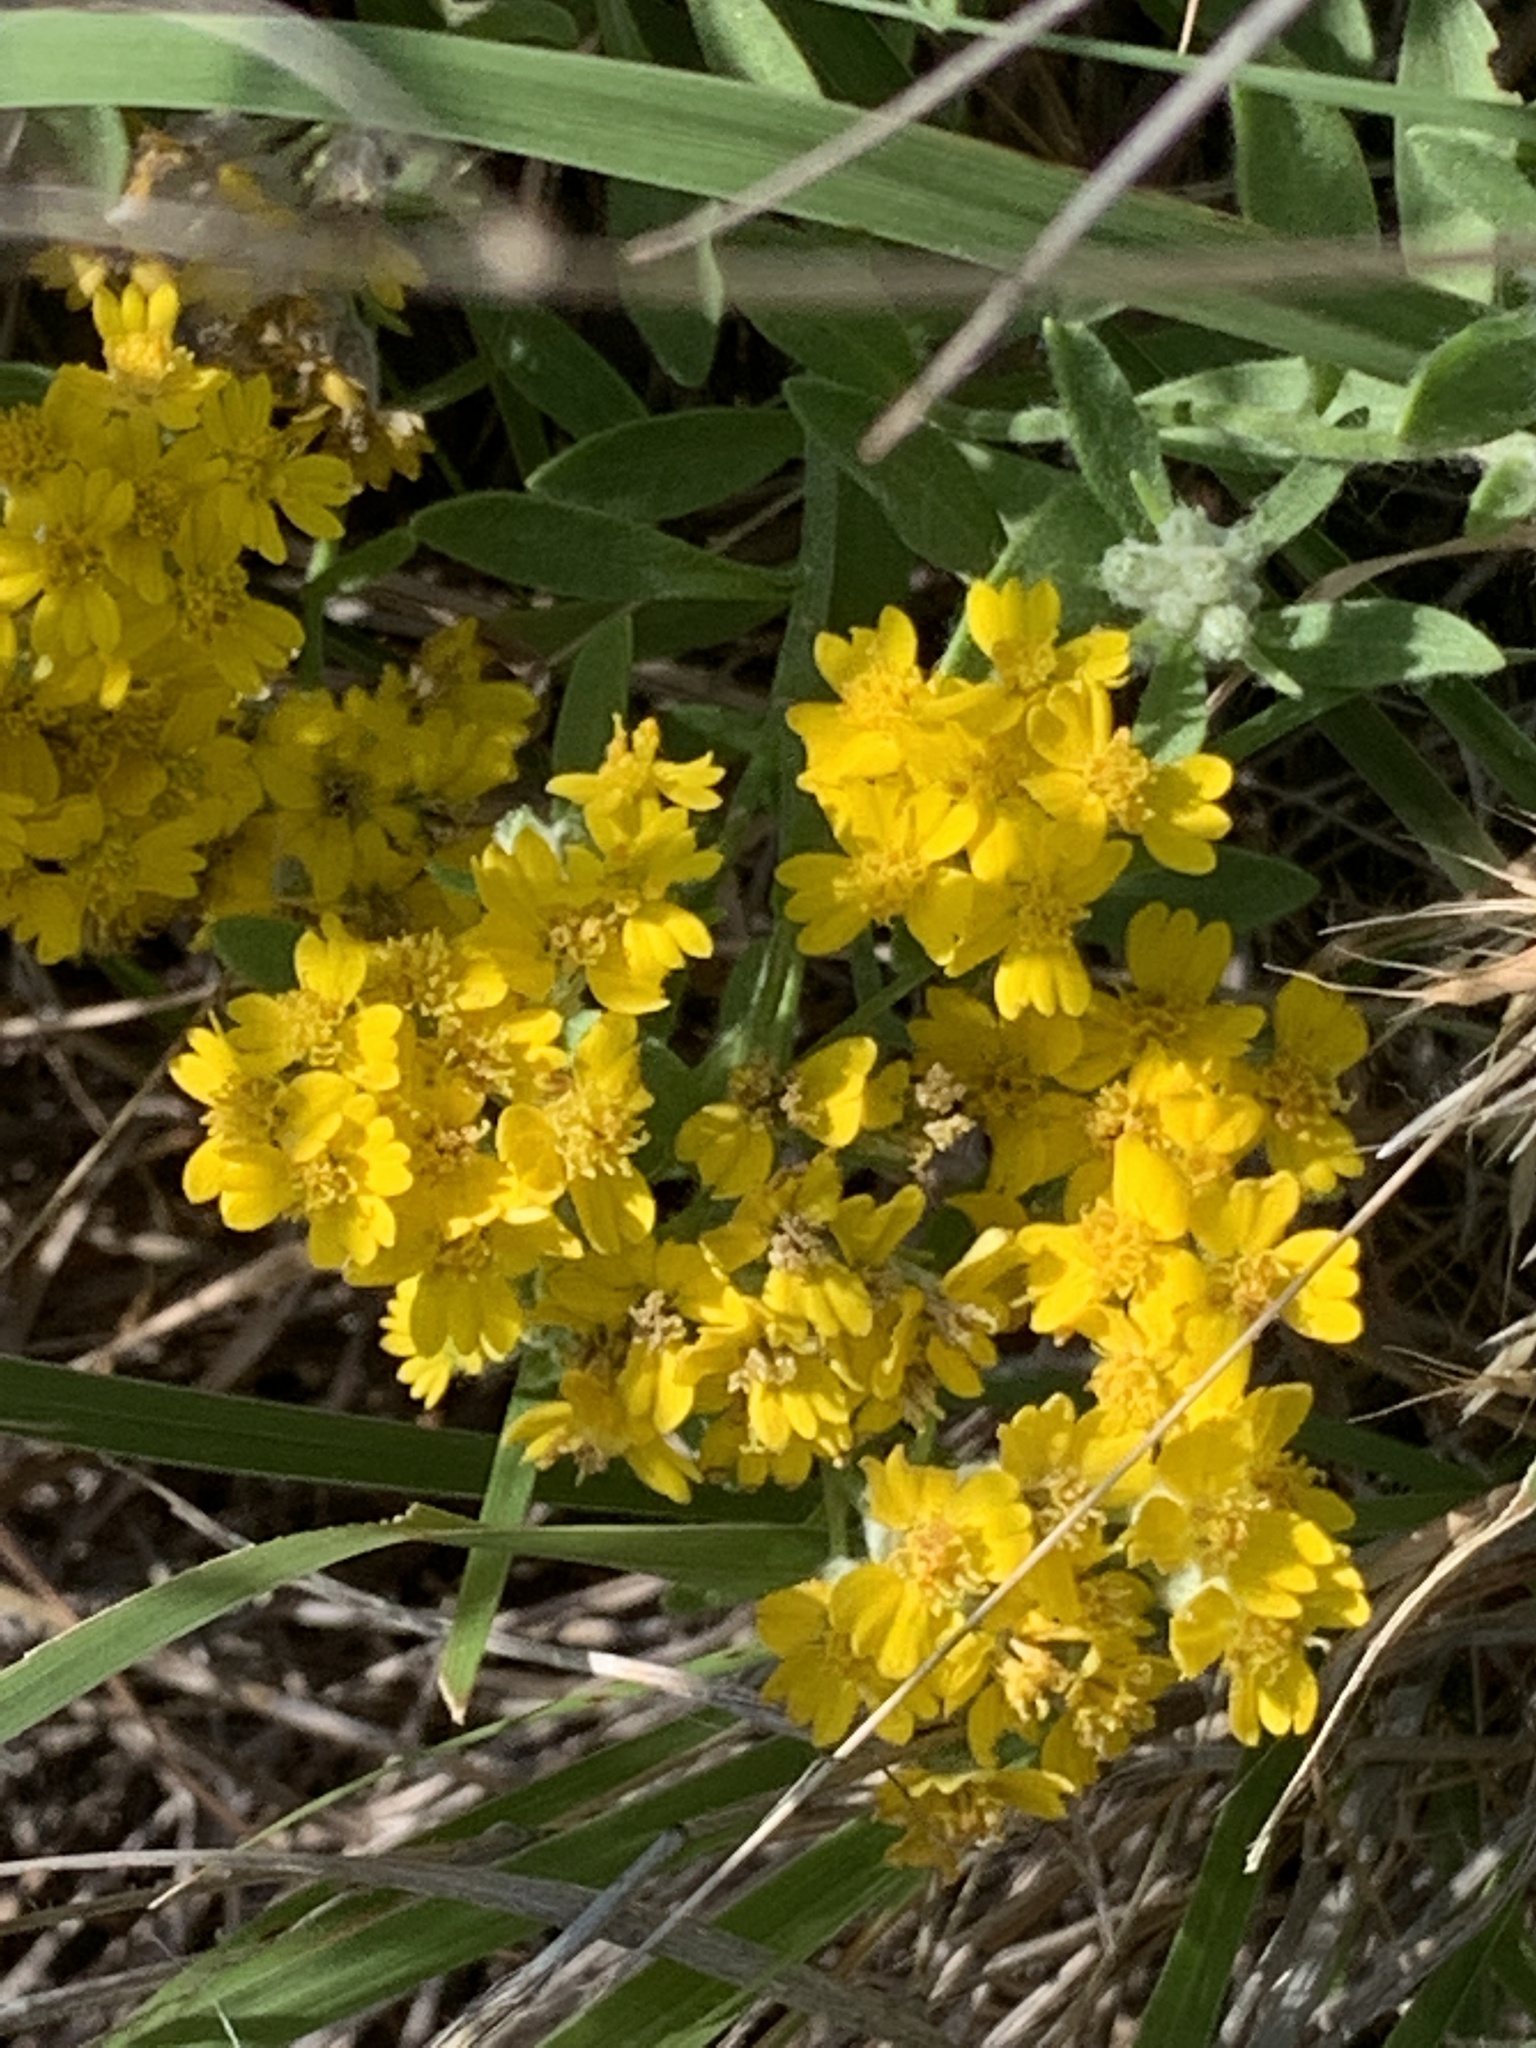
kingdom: Plantae
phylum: Tracheophyta
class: Magnoliopsida
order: Asterales
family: Asteraceae
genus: Psilostrophe
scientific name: Psilostrophe villosa
